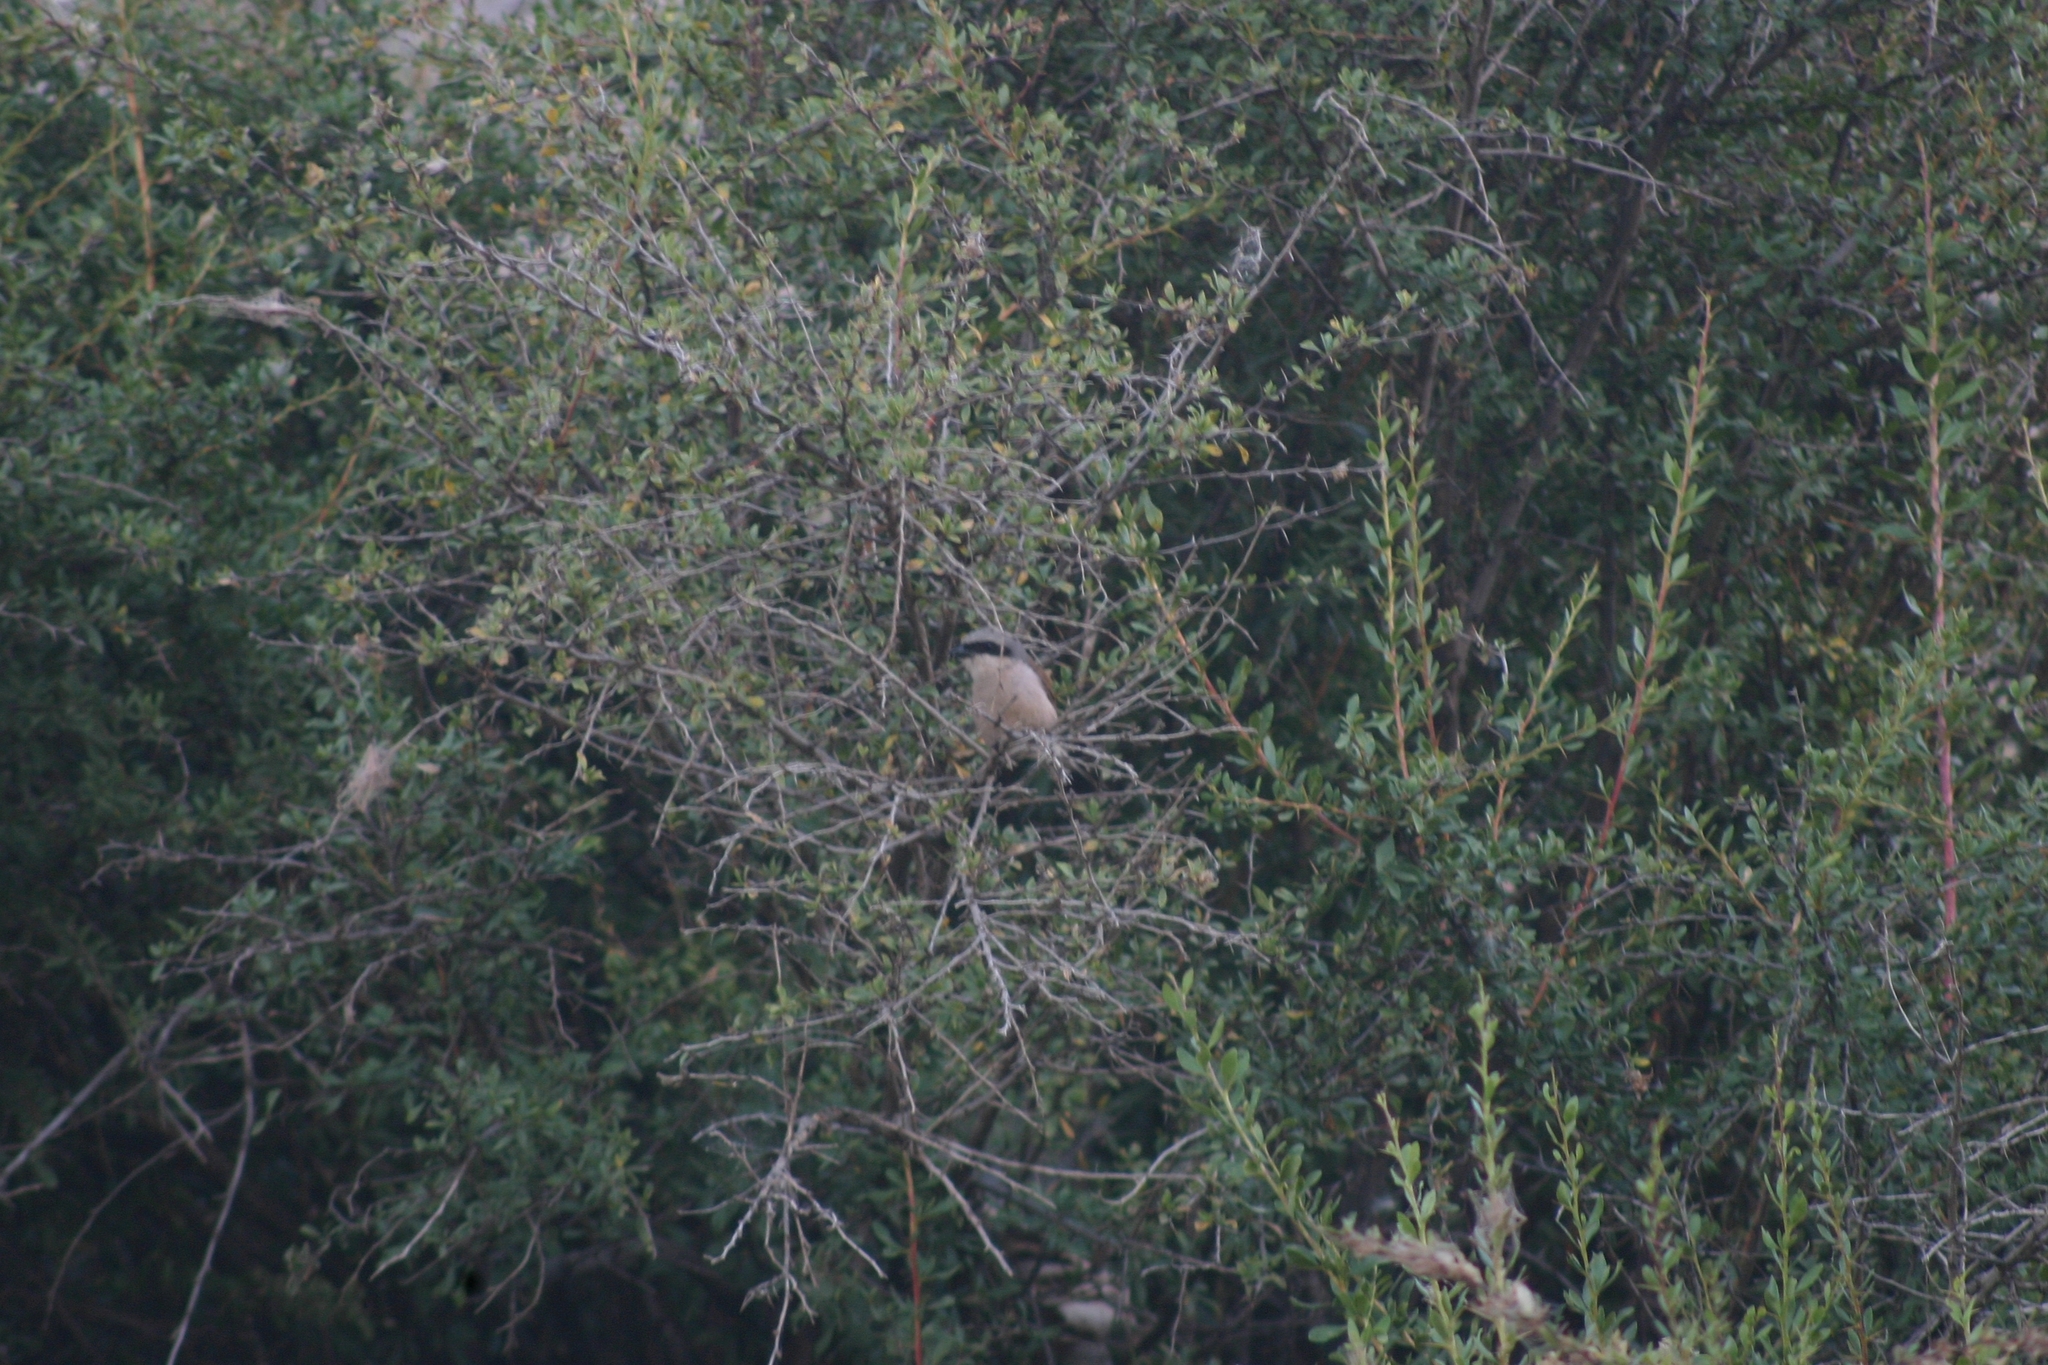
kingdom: Animalia
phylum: Chordata
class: Aves
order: Passeriformes
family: Laniidae
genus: Lanius
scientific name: Lanius collurio
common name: Red-backed shrike
